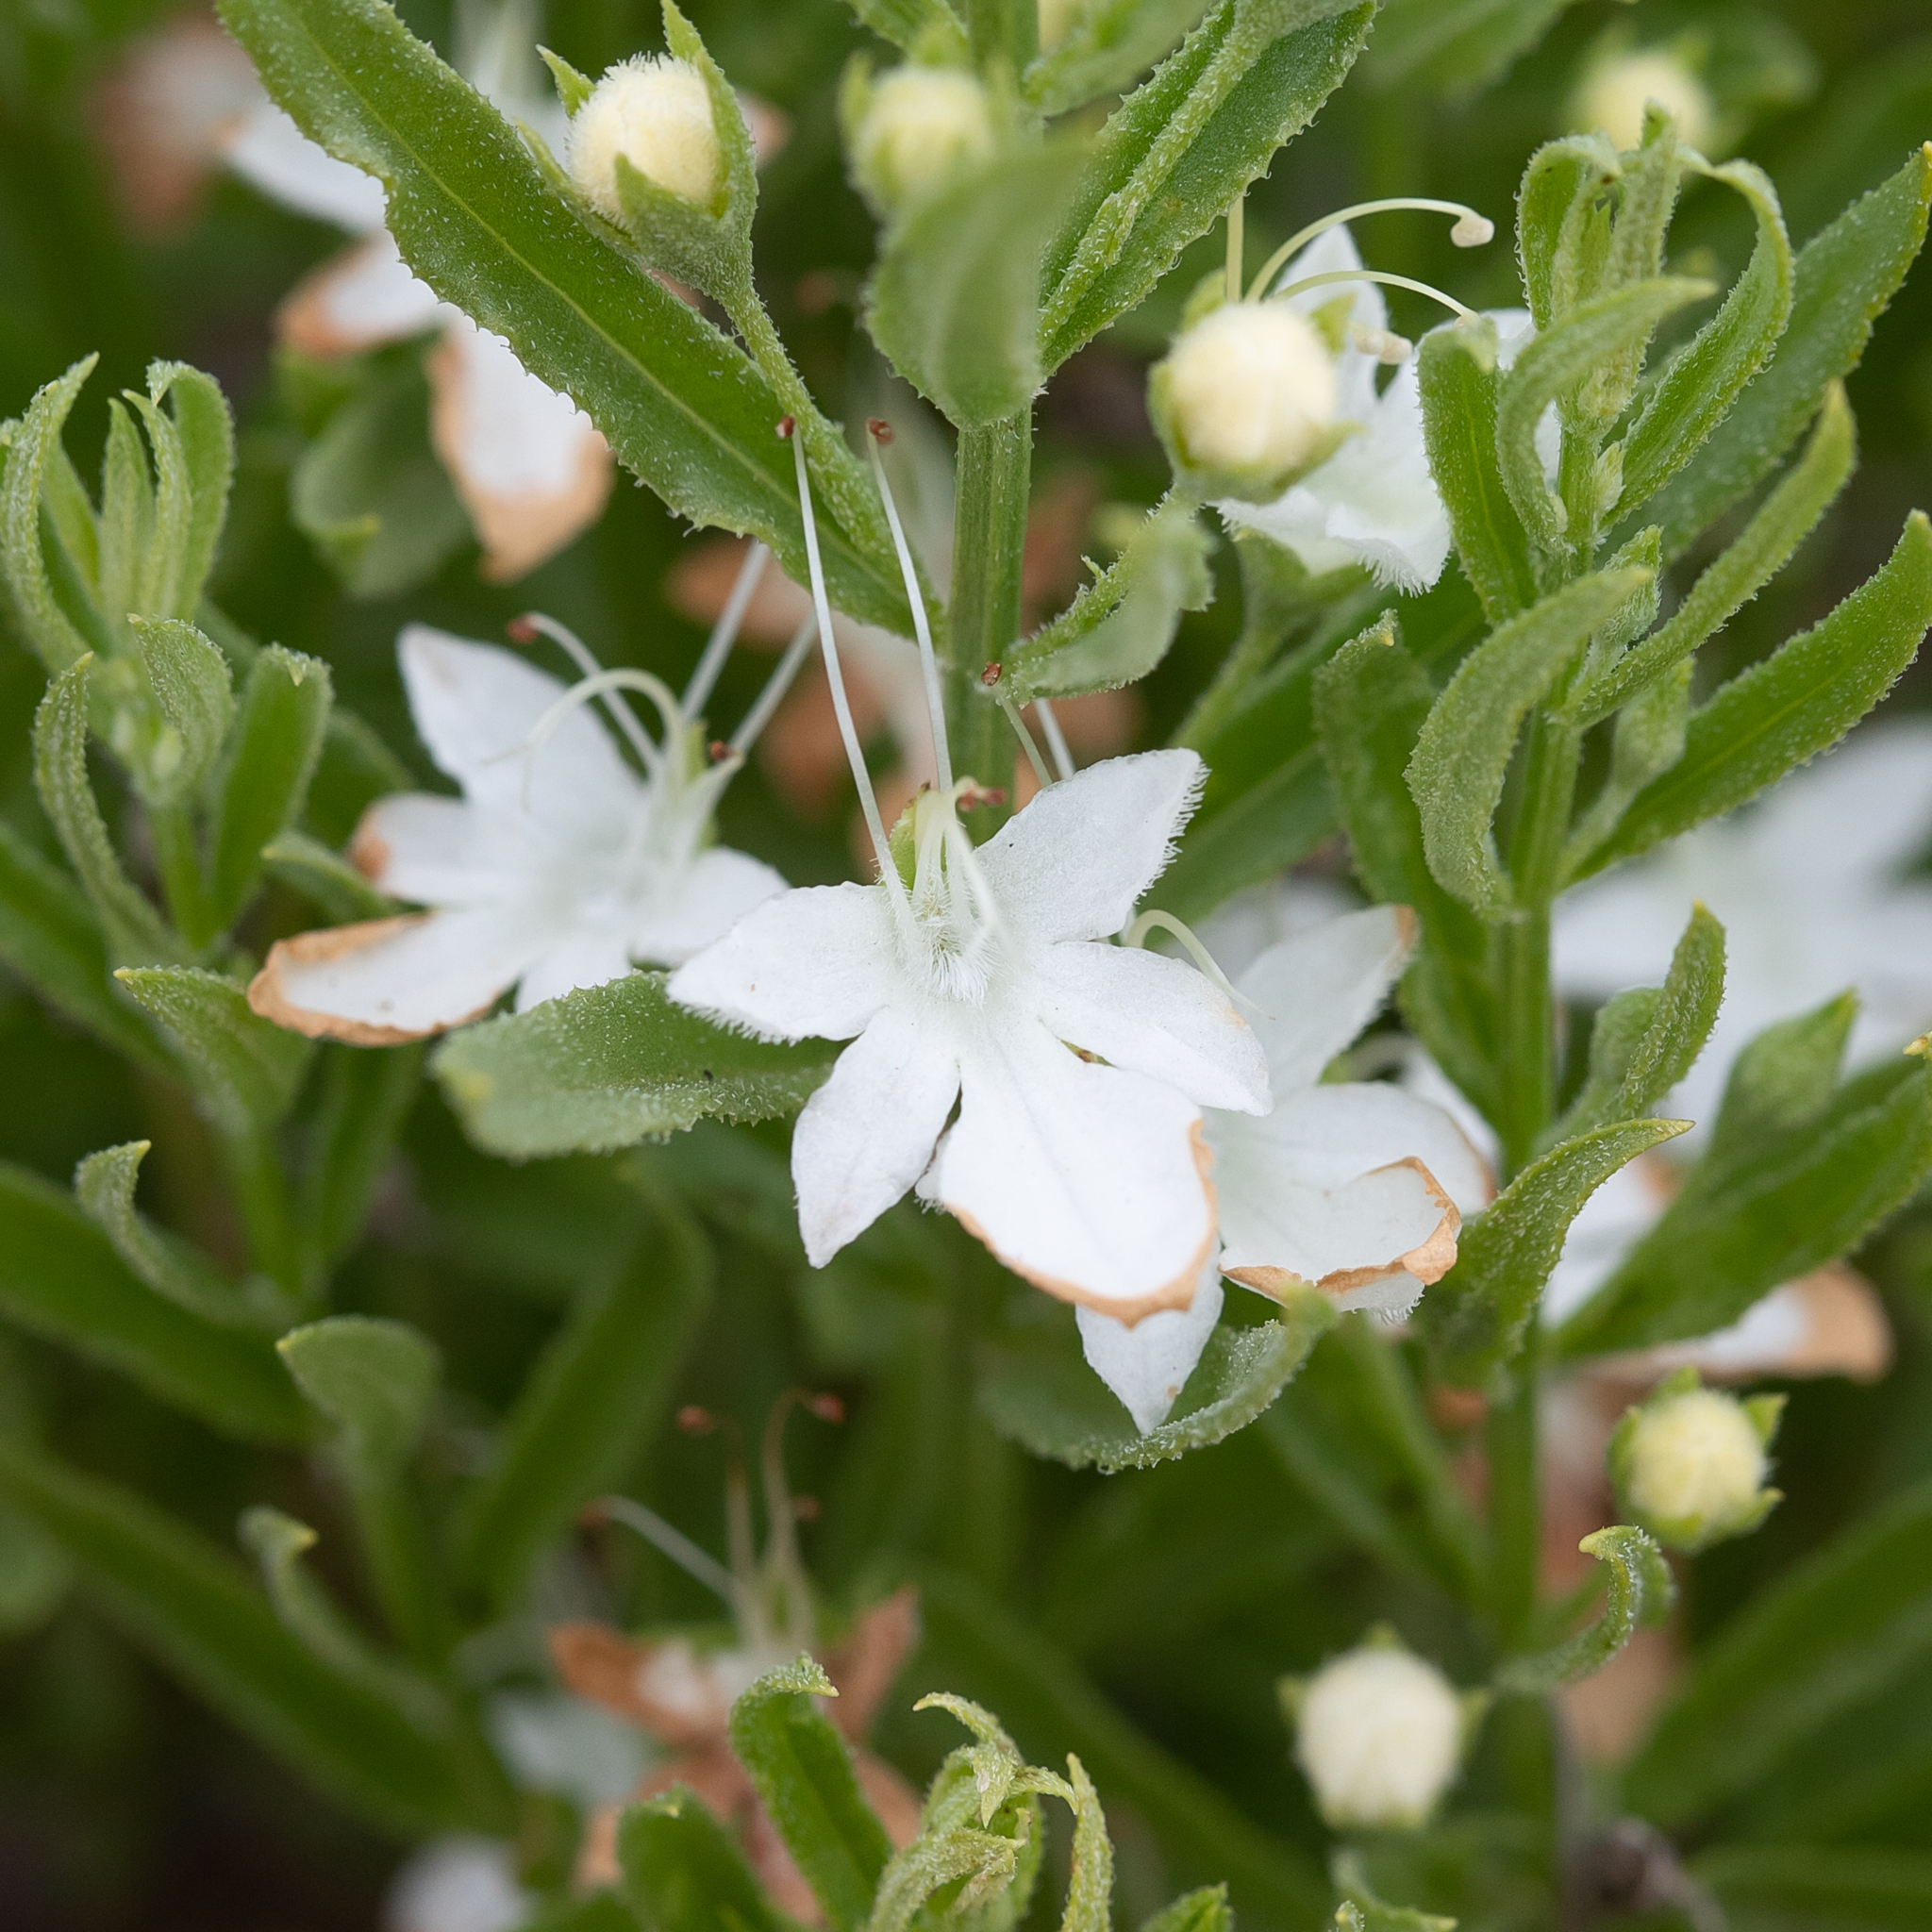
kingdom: Plantae
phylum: Tracheophyta
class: Magnoliopsida
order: Lamiales
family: Lamiaceae
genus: Teucrium
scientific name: Teucrium integrifolium
